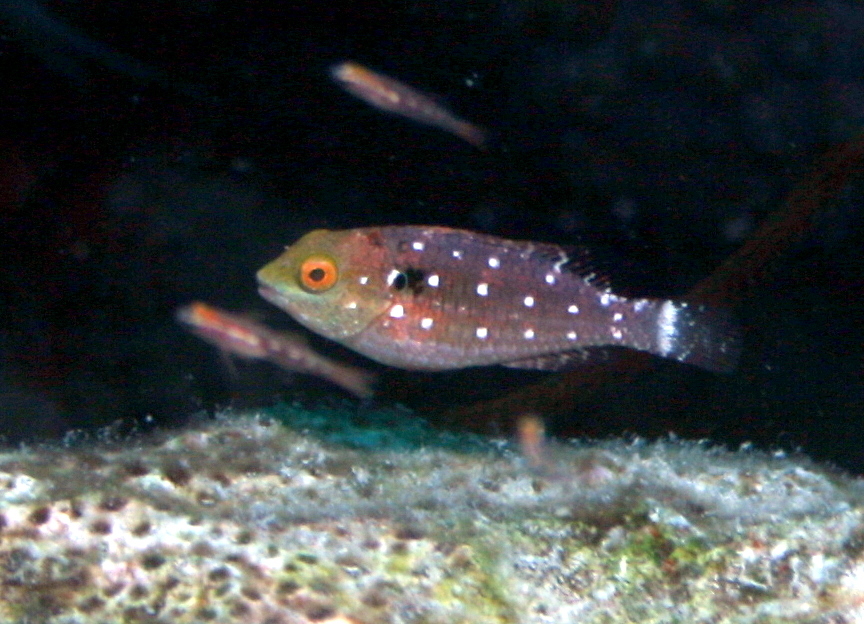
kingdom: Animalia
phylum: Chordata
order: Perciformes
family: Scaridae
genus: Sparisoma
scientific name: Sparisoma viride
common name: Stoplight parrotfish
